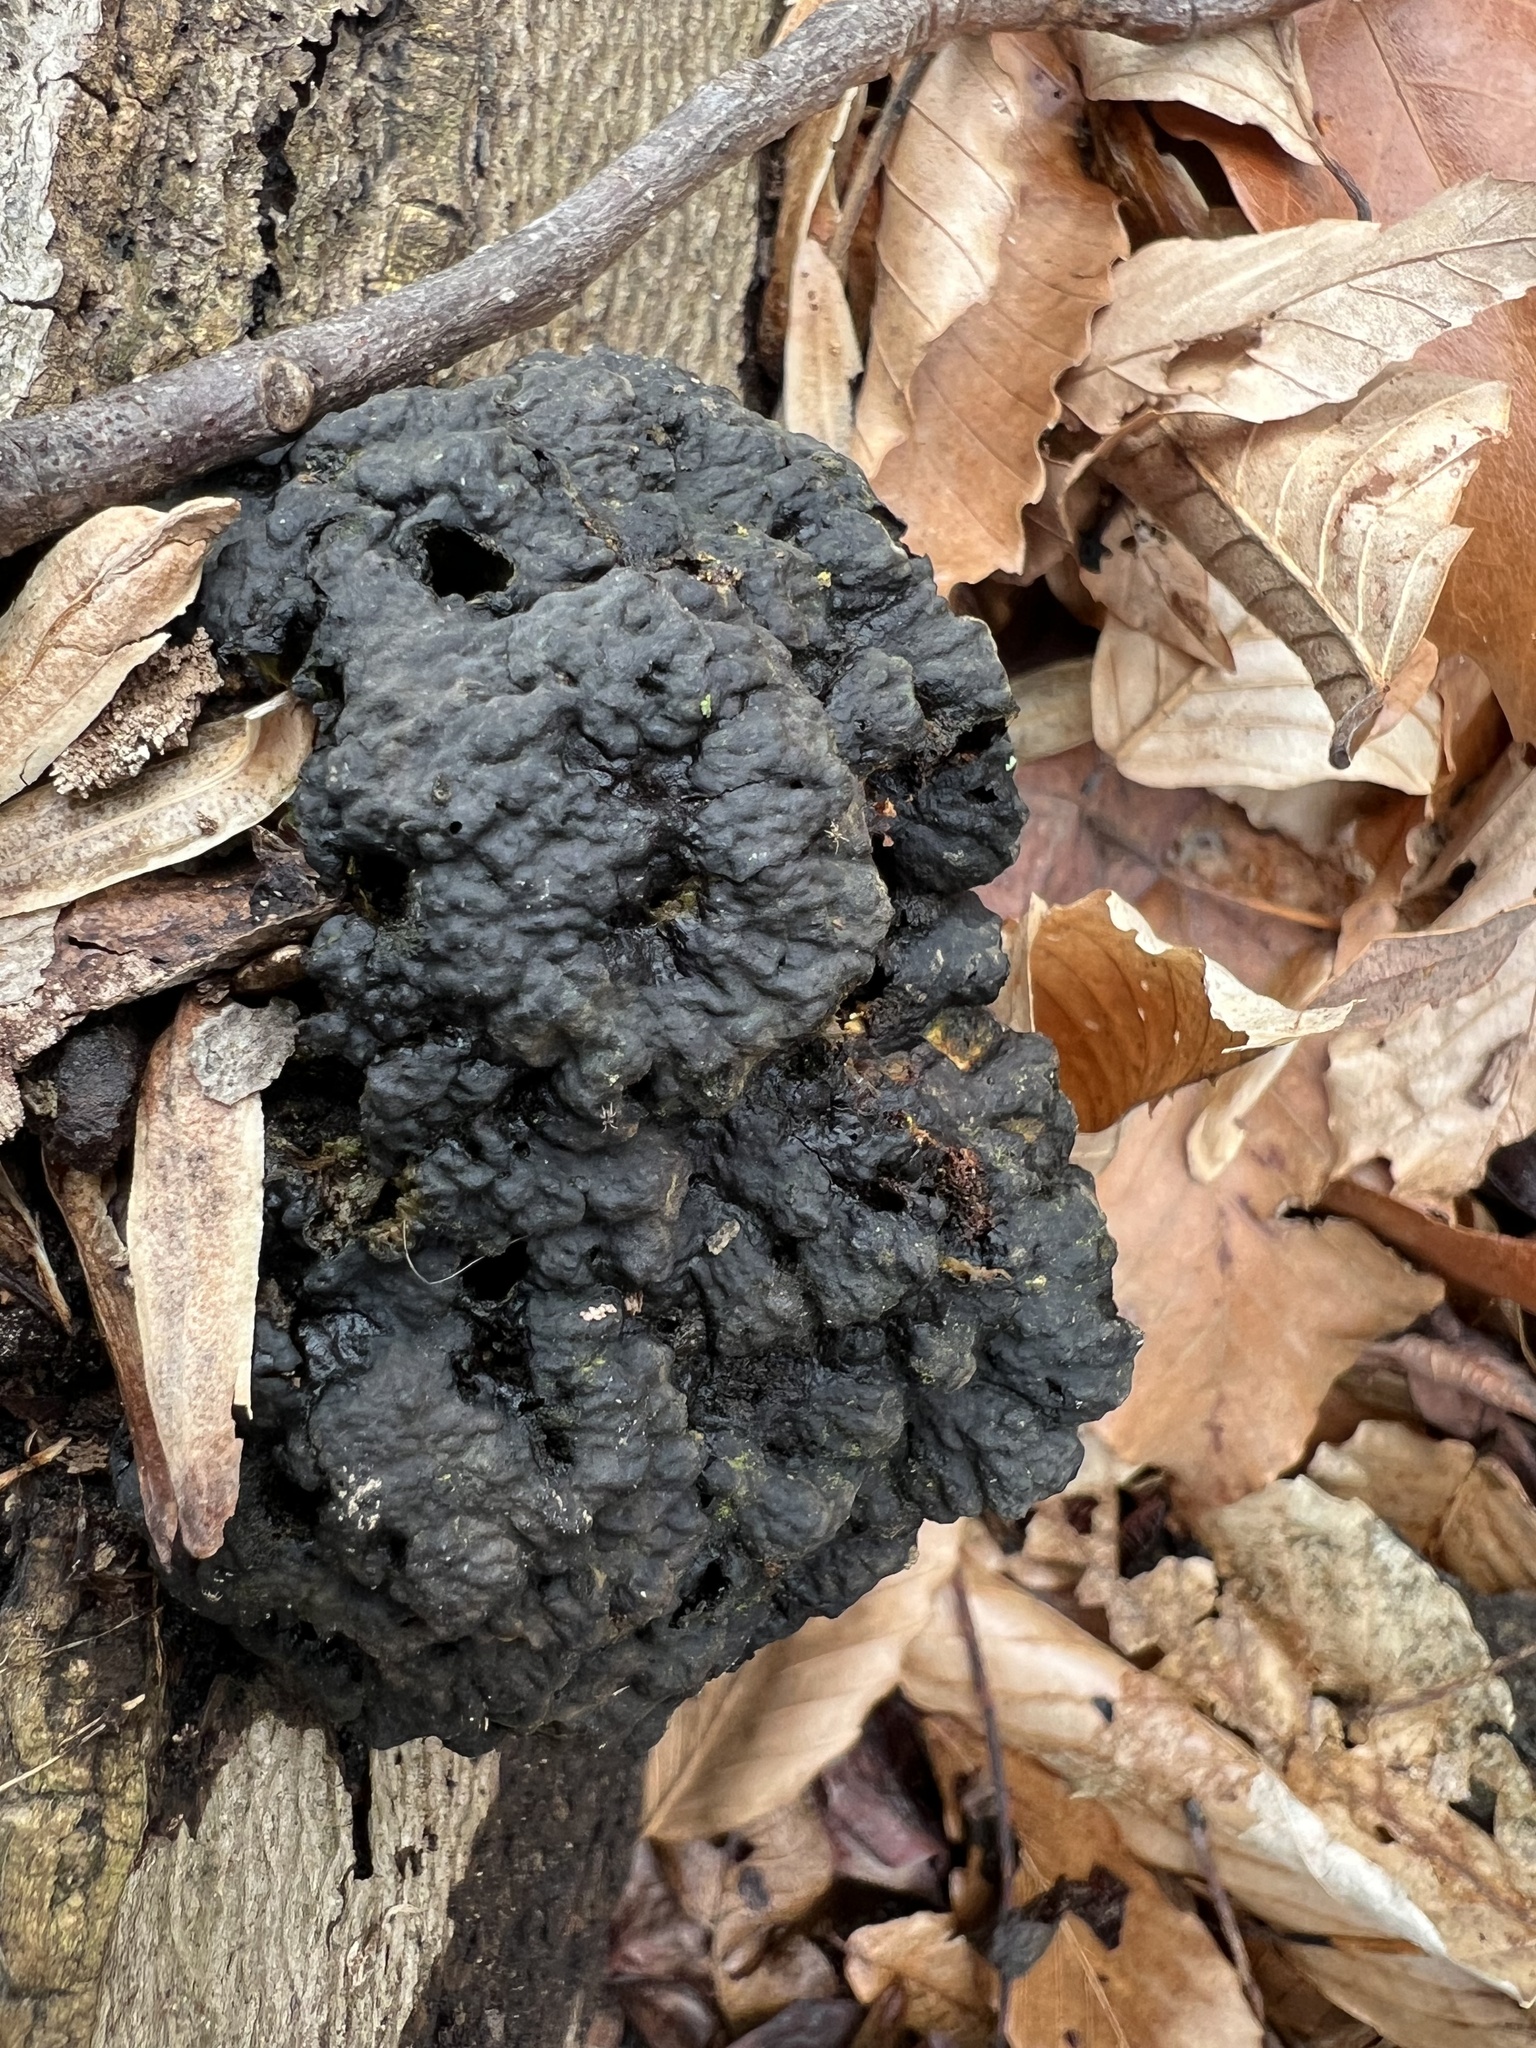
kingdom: Fungi
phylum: Basidiomycota
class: Agaricomycetes
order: Polyporales
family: Polyporaceae
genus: Globifomes
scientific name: Globifomes graveolens
